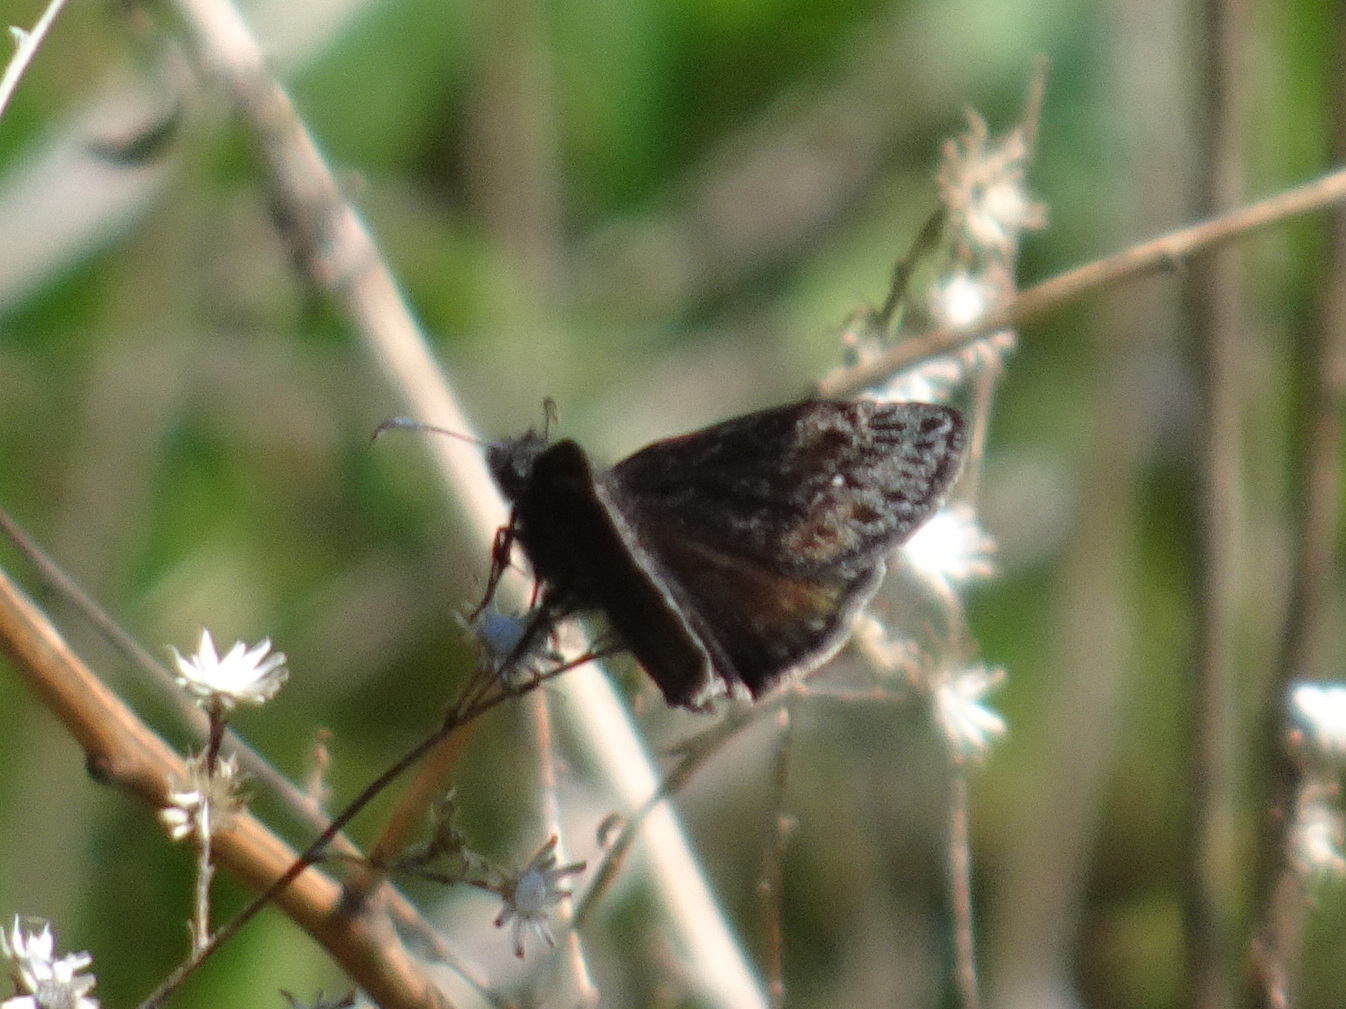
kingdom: Animalia
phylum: Arthropoda
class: Insecta
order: Lepidoptera
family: Hesperiidae
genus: Erynnis
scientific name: Erynnis baptisiae
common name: Wild indigo duskywing
